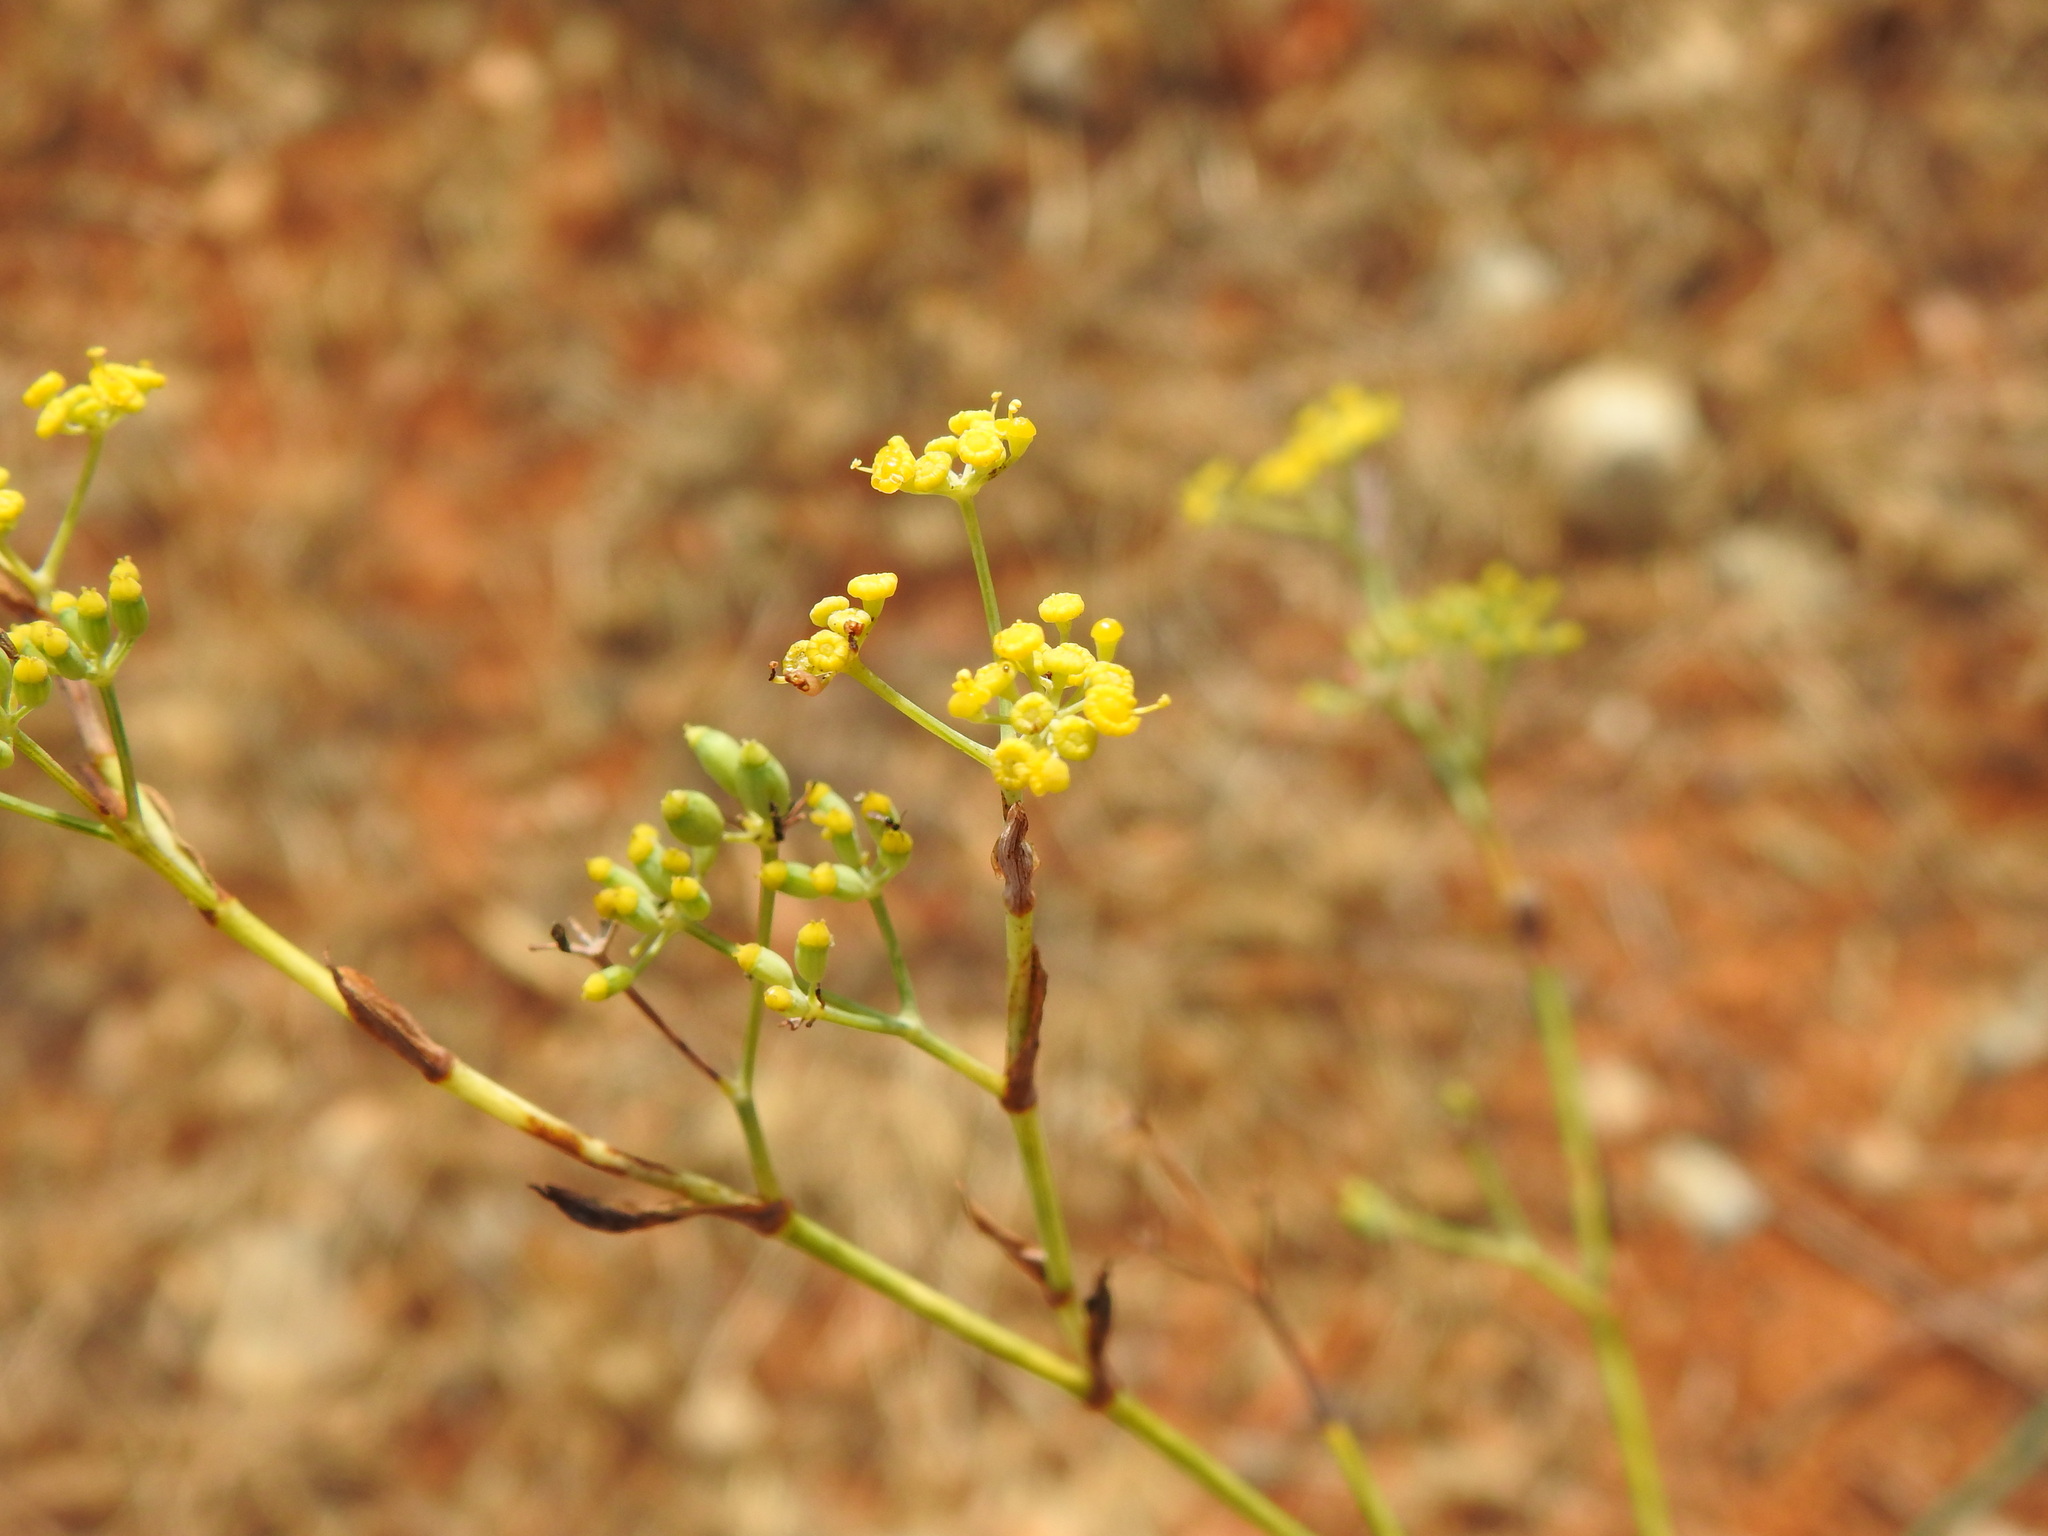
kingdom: Plantae
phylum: Tracheophyta
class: Magnoliopsida
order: Apiales
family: Apiaceae
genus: Foeniculum
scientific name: Foeniculum vulgare
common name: Fennel
